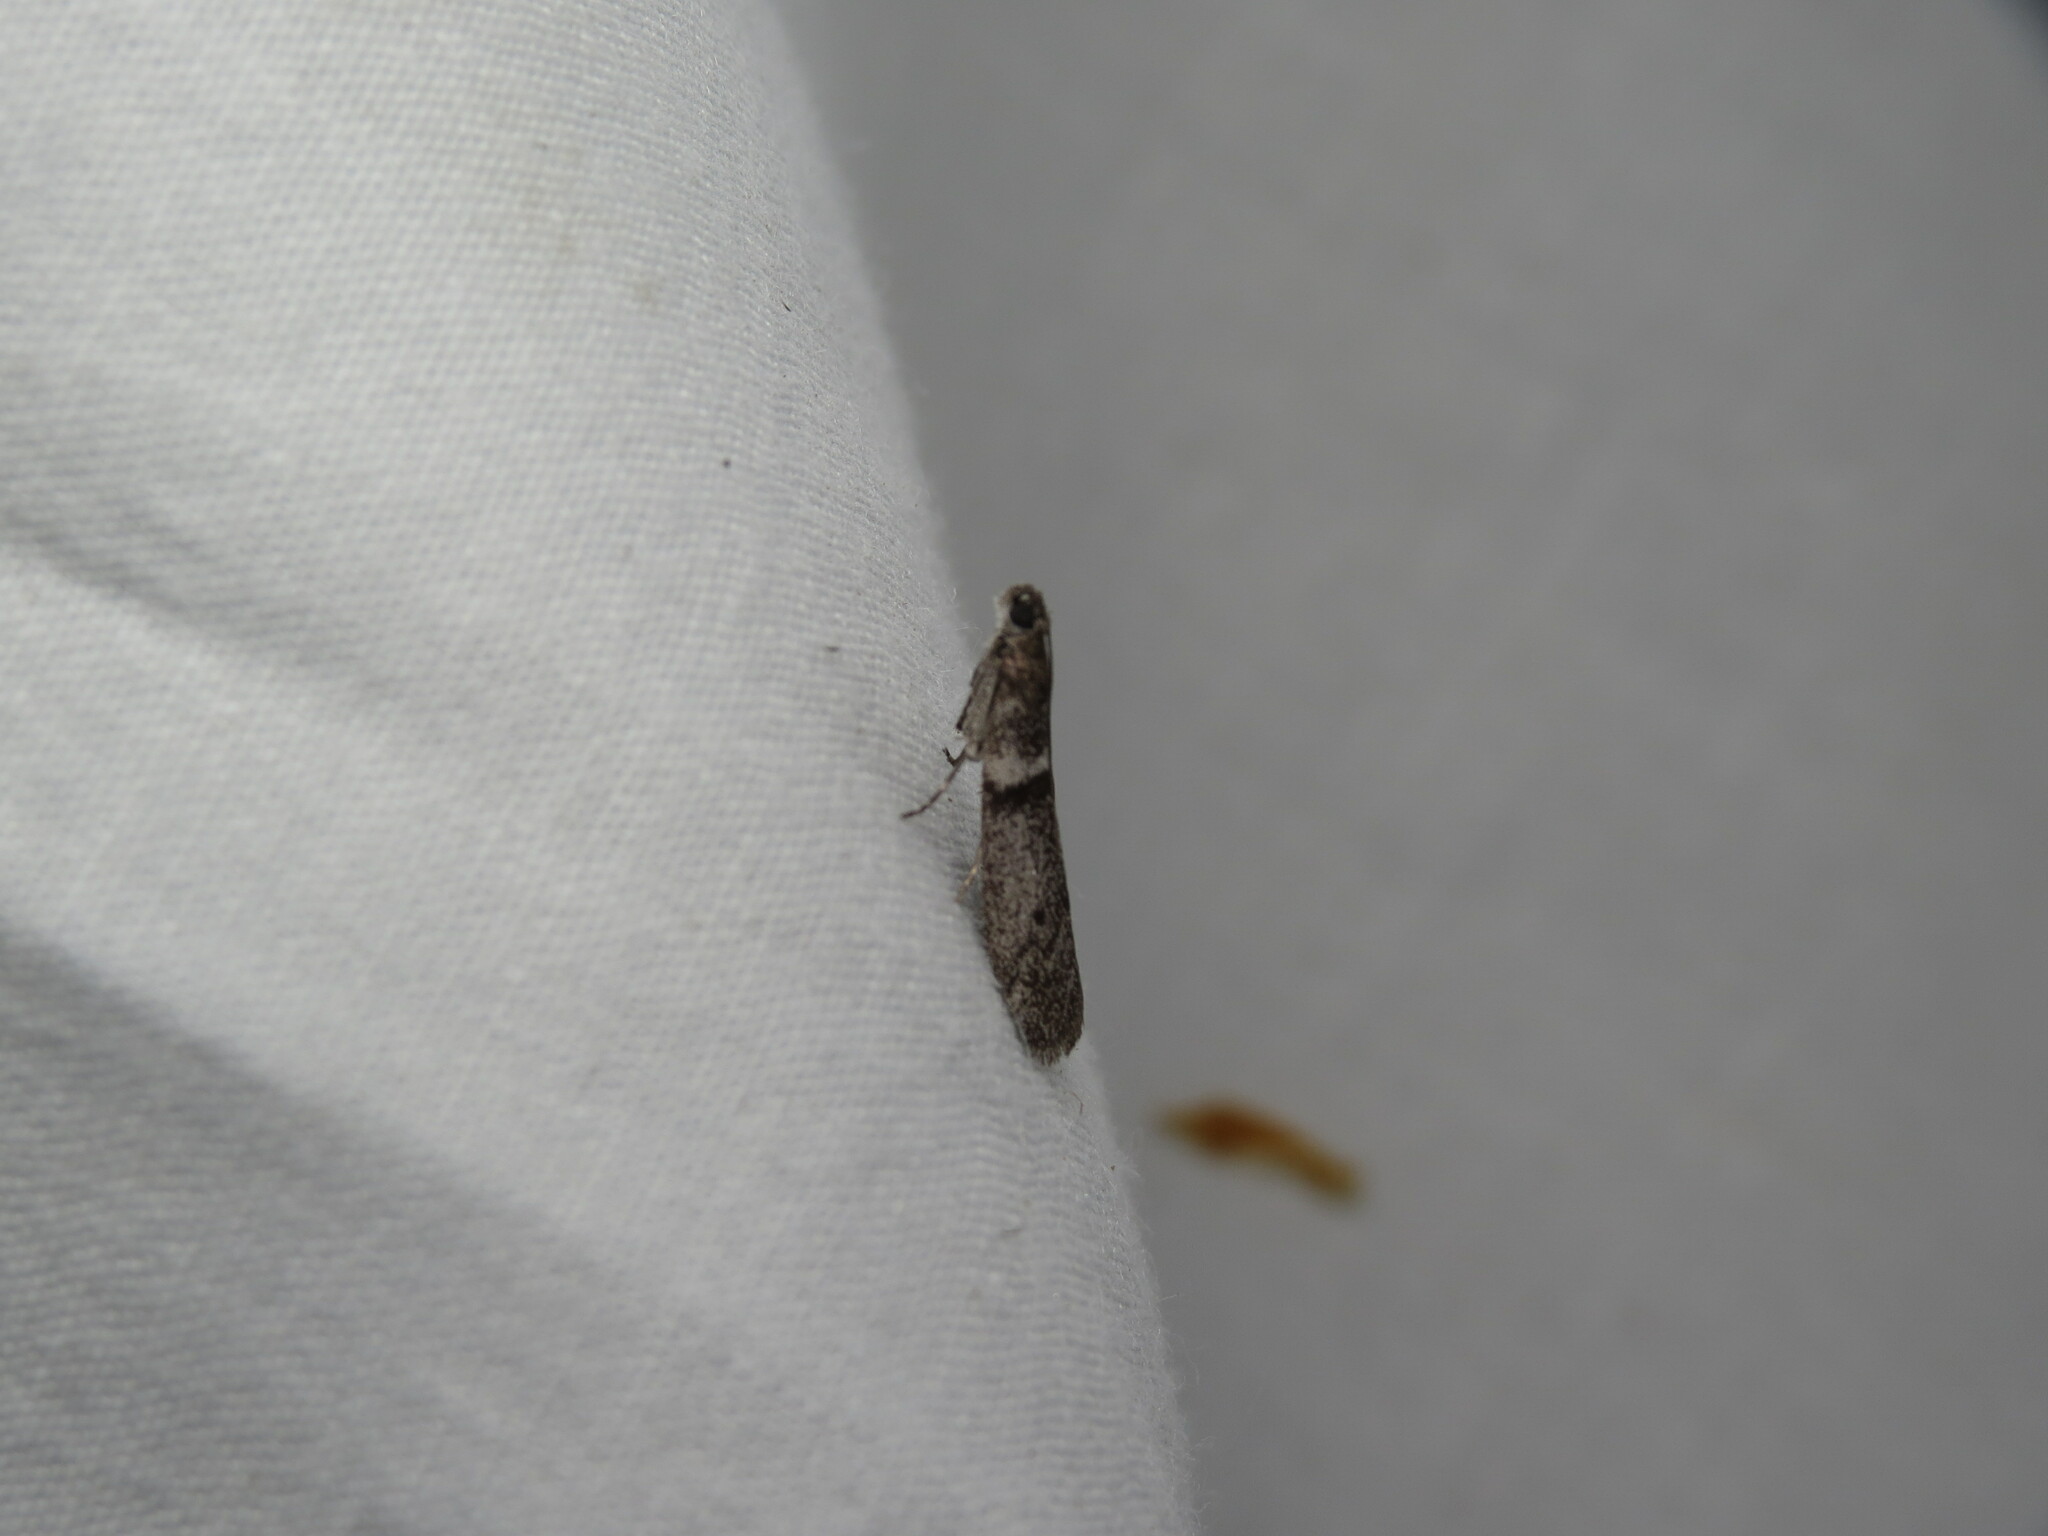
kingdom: Animalia
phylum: Arthropoda
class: Insecta
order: Lepidoptera
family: Pyralidae
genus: Myelopsis
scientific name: Myelopsis subtetricella
